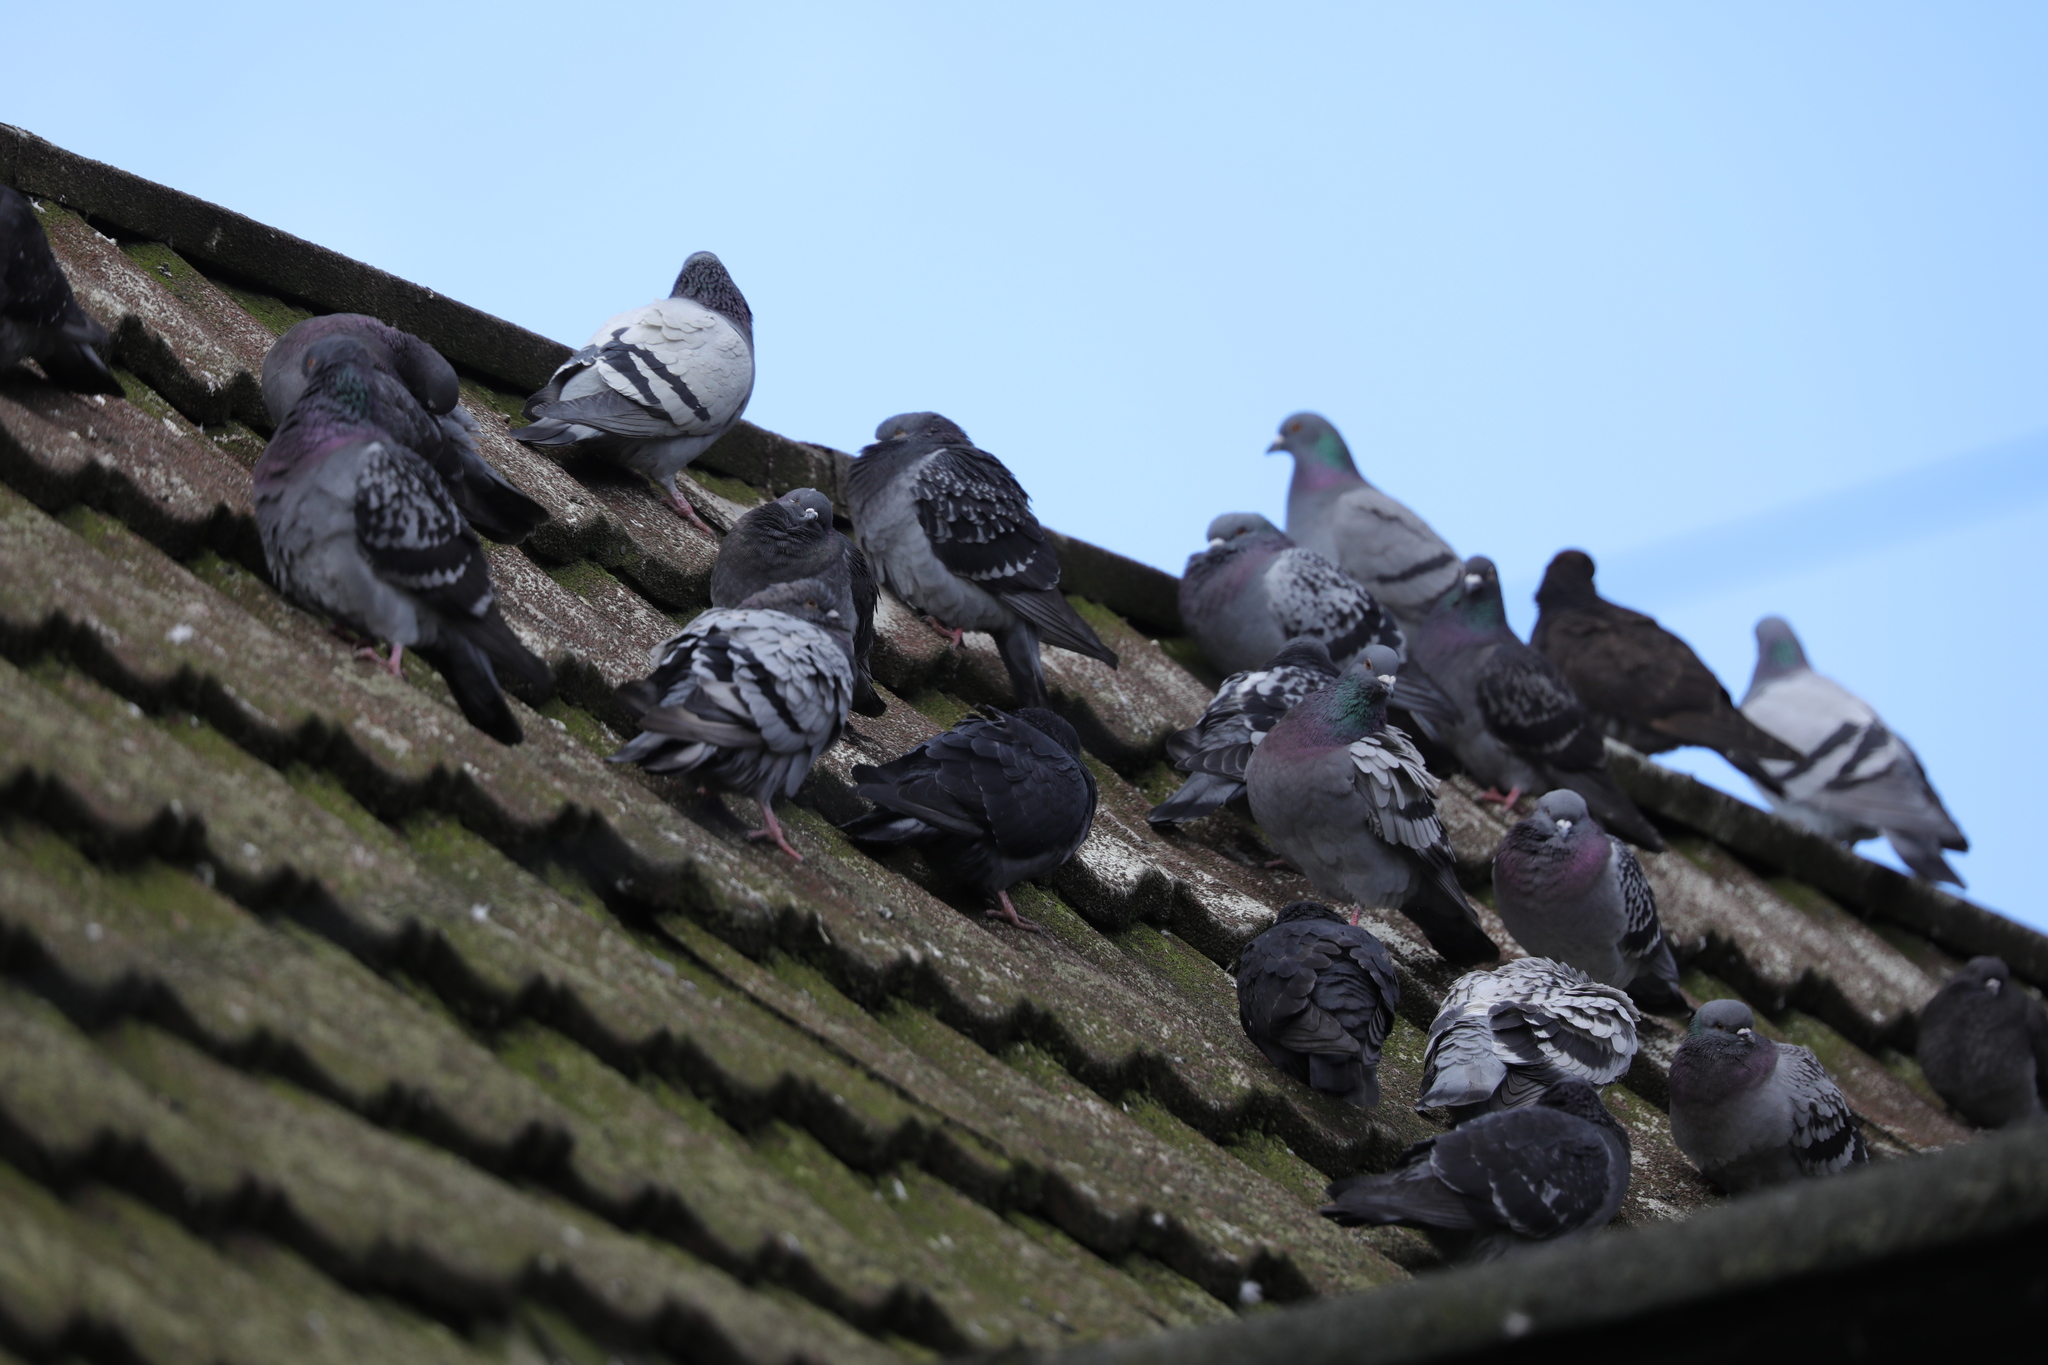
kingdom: Animalia
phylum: Chordata
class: Aves
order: Columbiformes
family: Columbidae
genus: Columba
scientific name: Columba livia
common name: Rock pigeon
